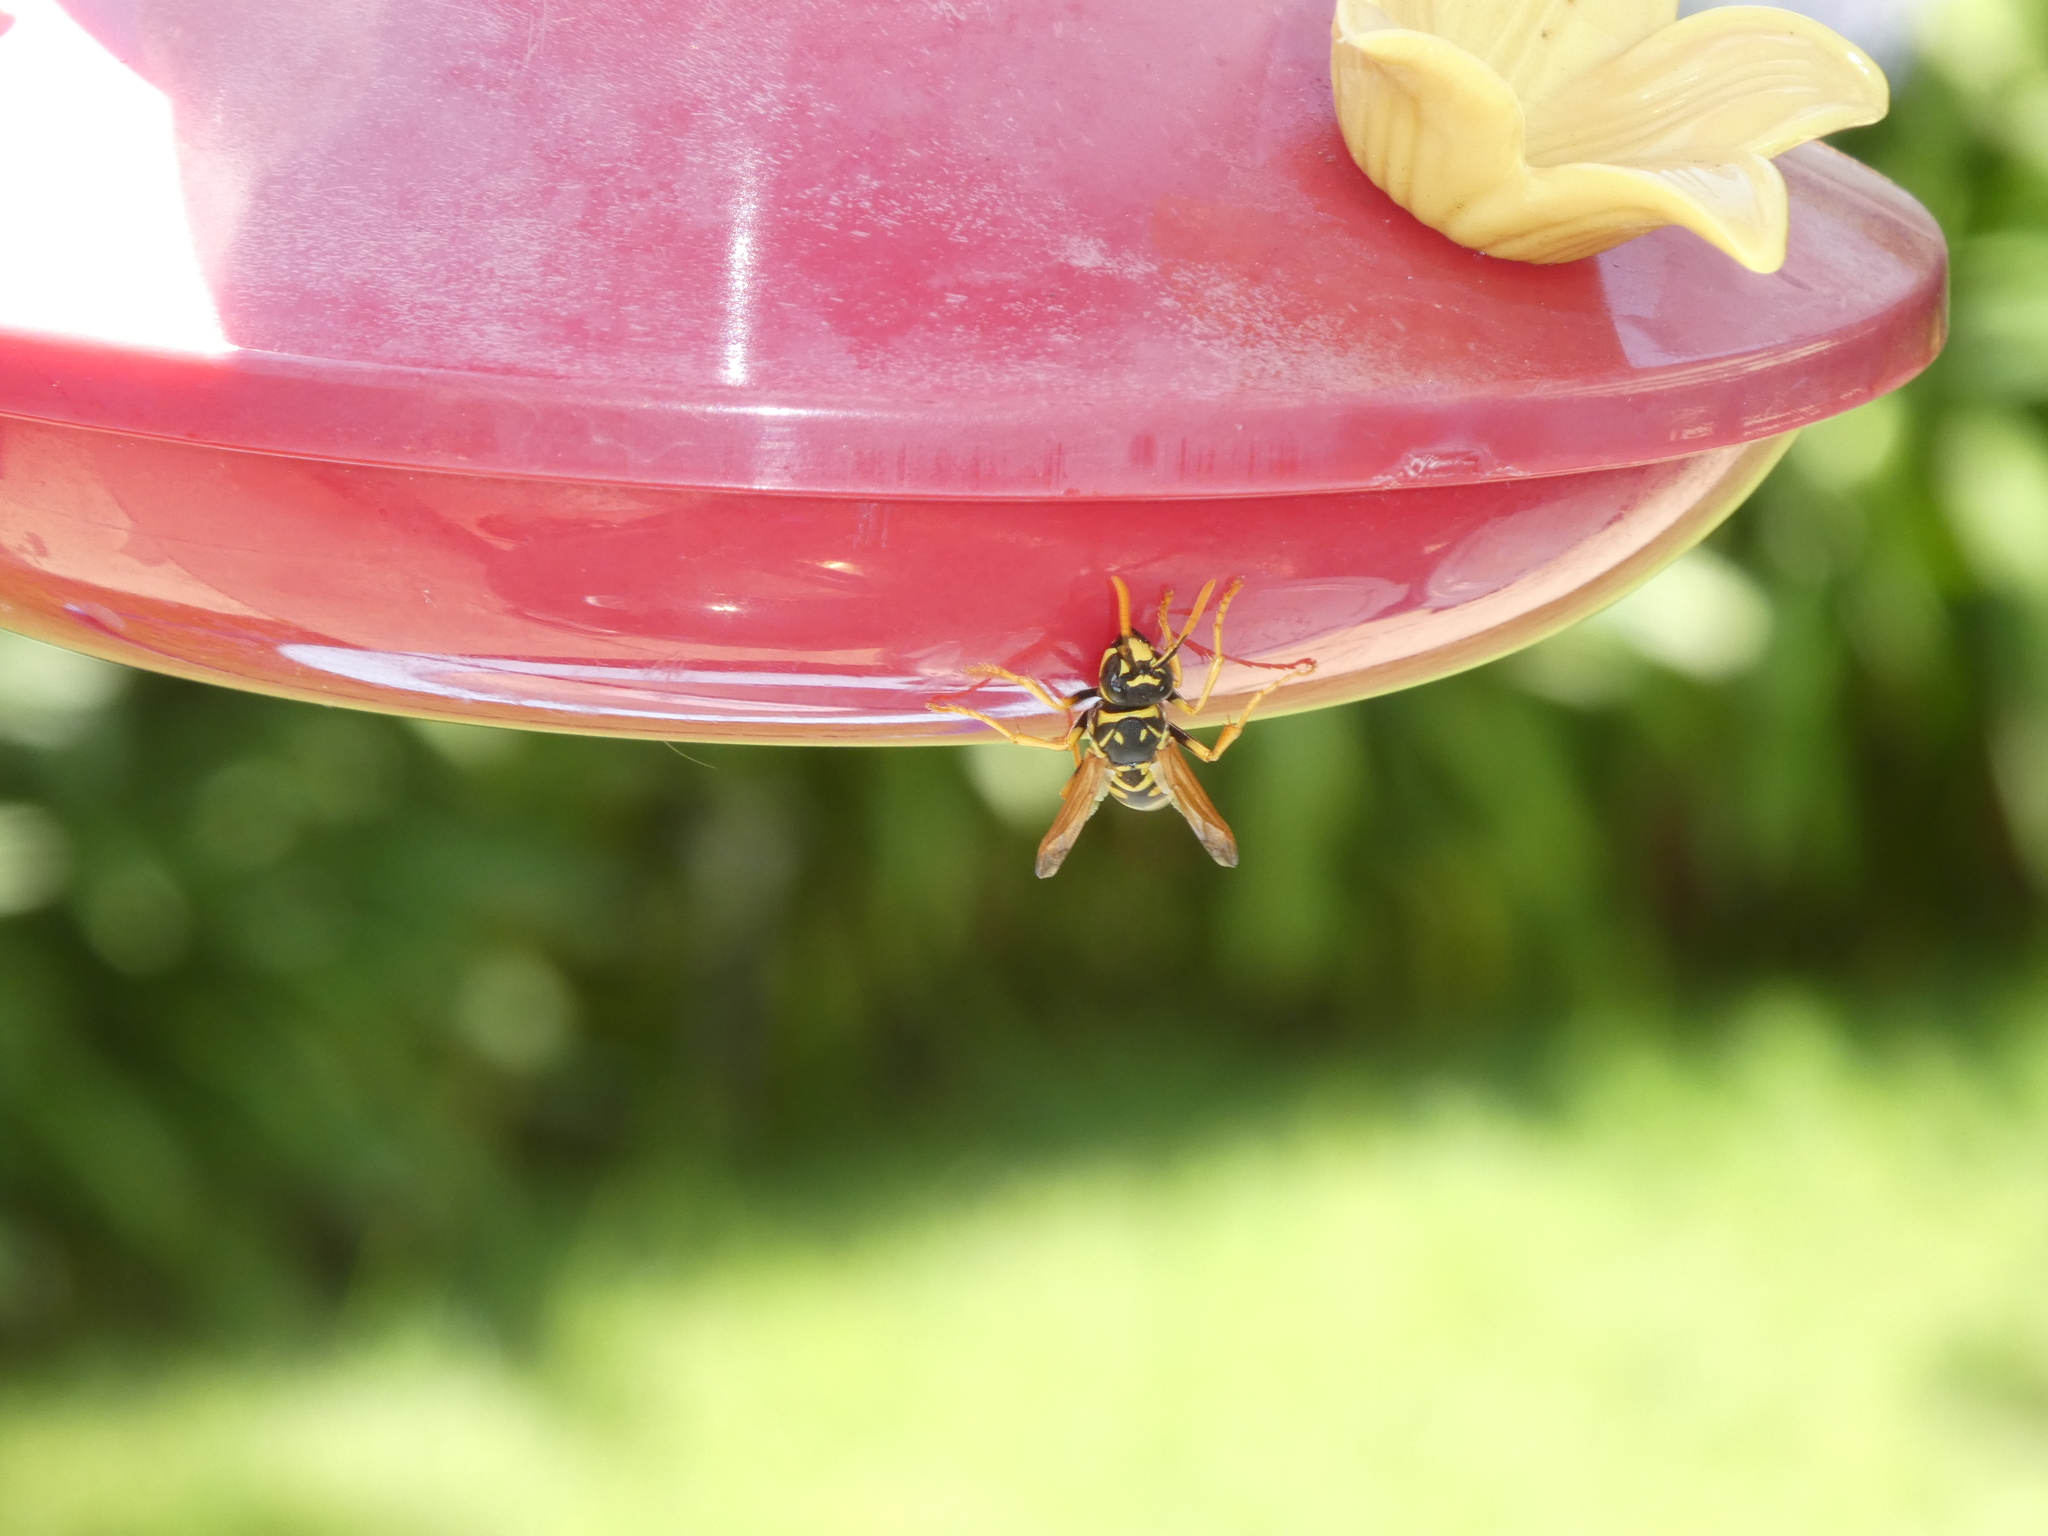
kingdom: Animalia
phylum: Arthropoda
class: Insecta
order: Hymenoptera
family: Eumenidae
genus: Polistes
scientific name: Polistes dominula
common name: Paper wasp
